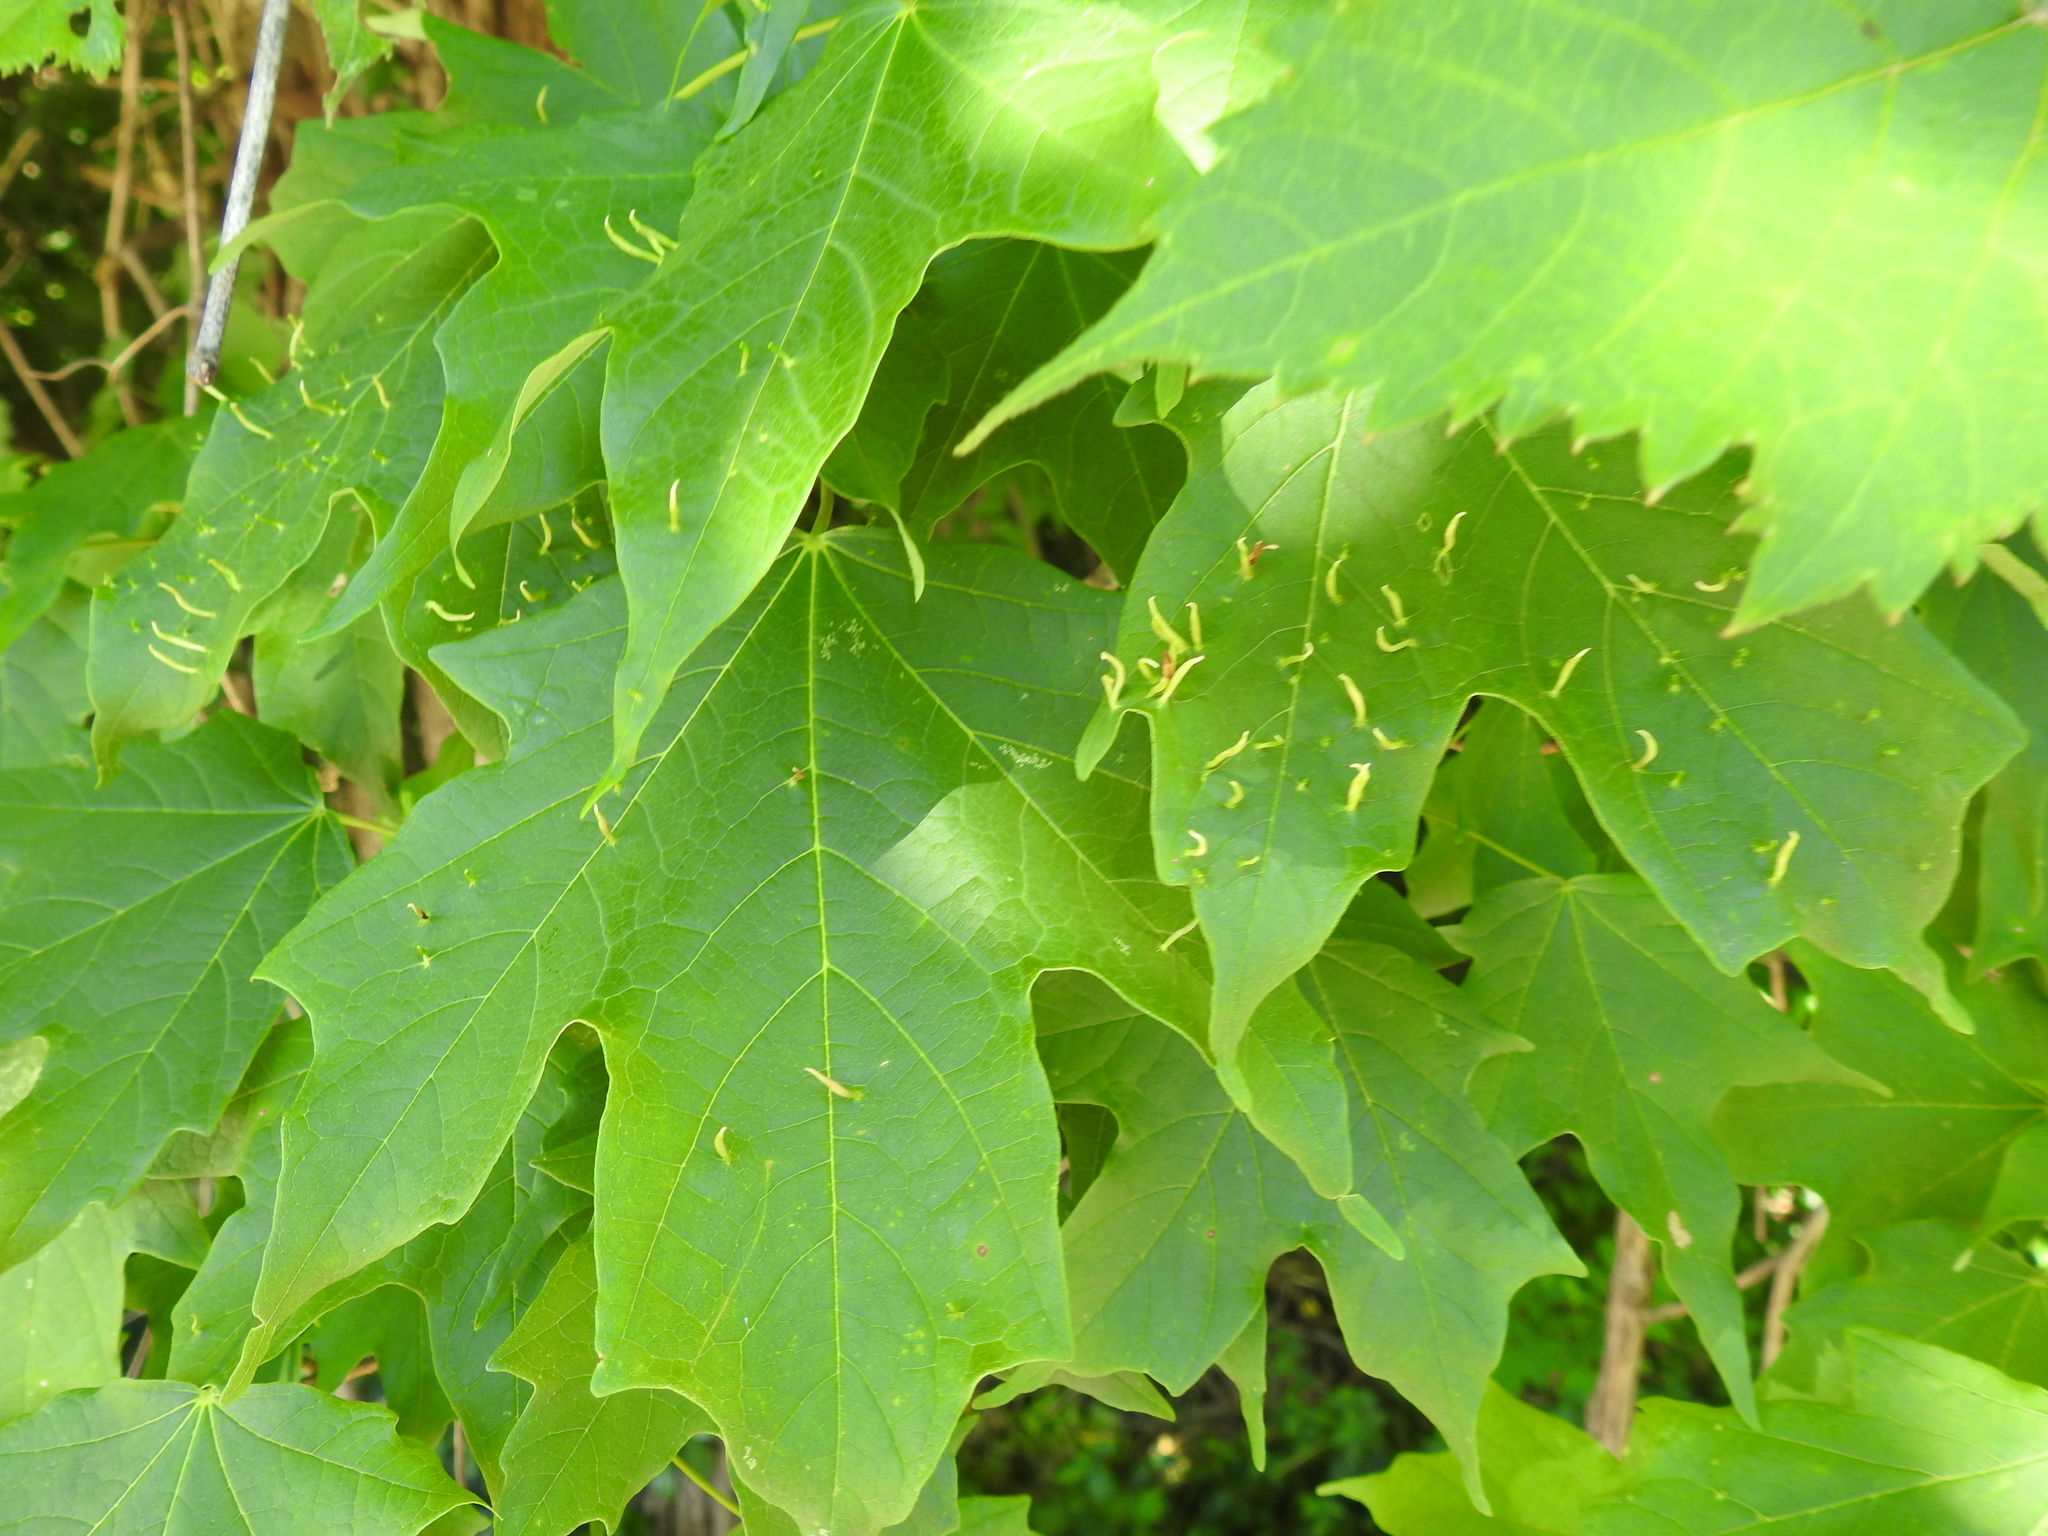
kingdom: Animalia
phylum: Arthropoda
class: Arachnida
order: Trombidiformes
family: Eriophyidae
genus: Vasates
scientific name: Vasates aceriscrumena
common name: Maple spindle gall mite
